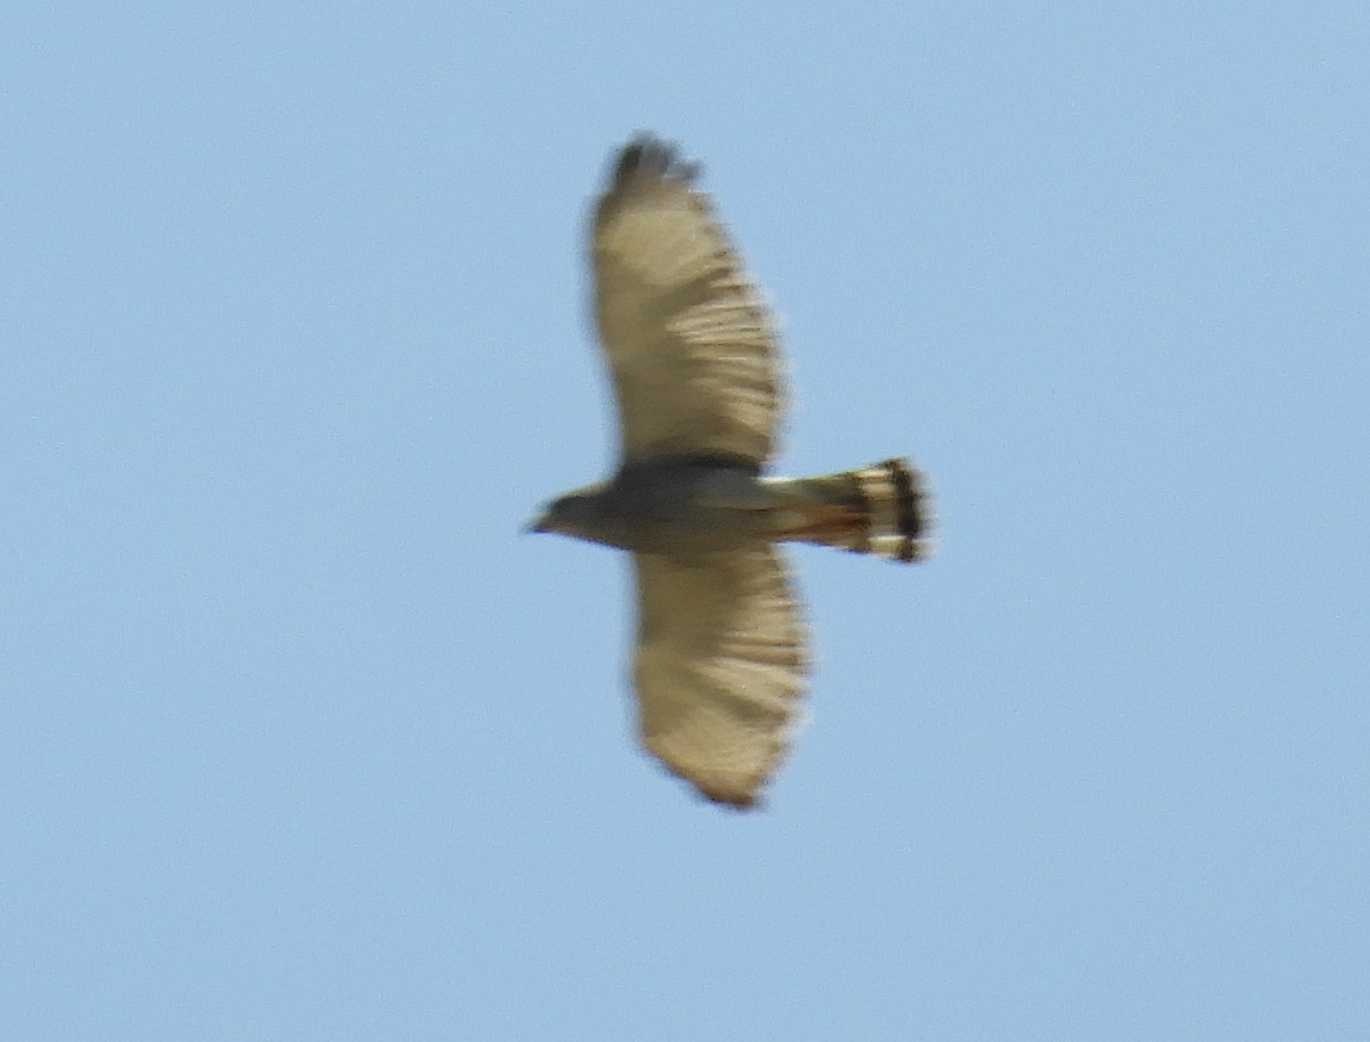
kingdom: Animalia
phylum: Chordata
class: Aves
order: Accipitriformes
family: Accipitridae
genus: Buteo
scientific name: Buteo nitidus
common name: Grey-lined hawk
